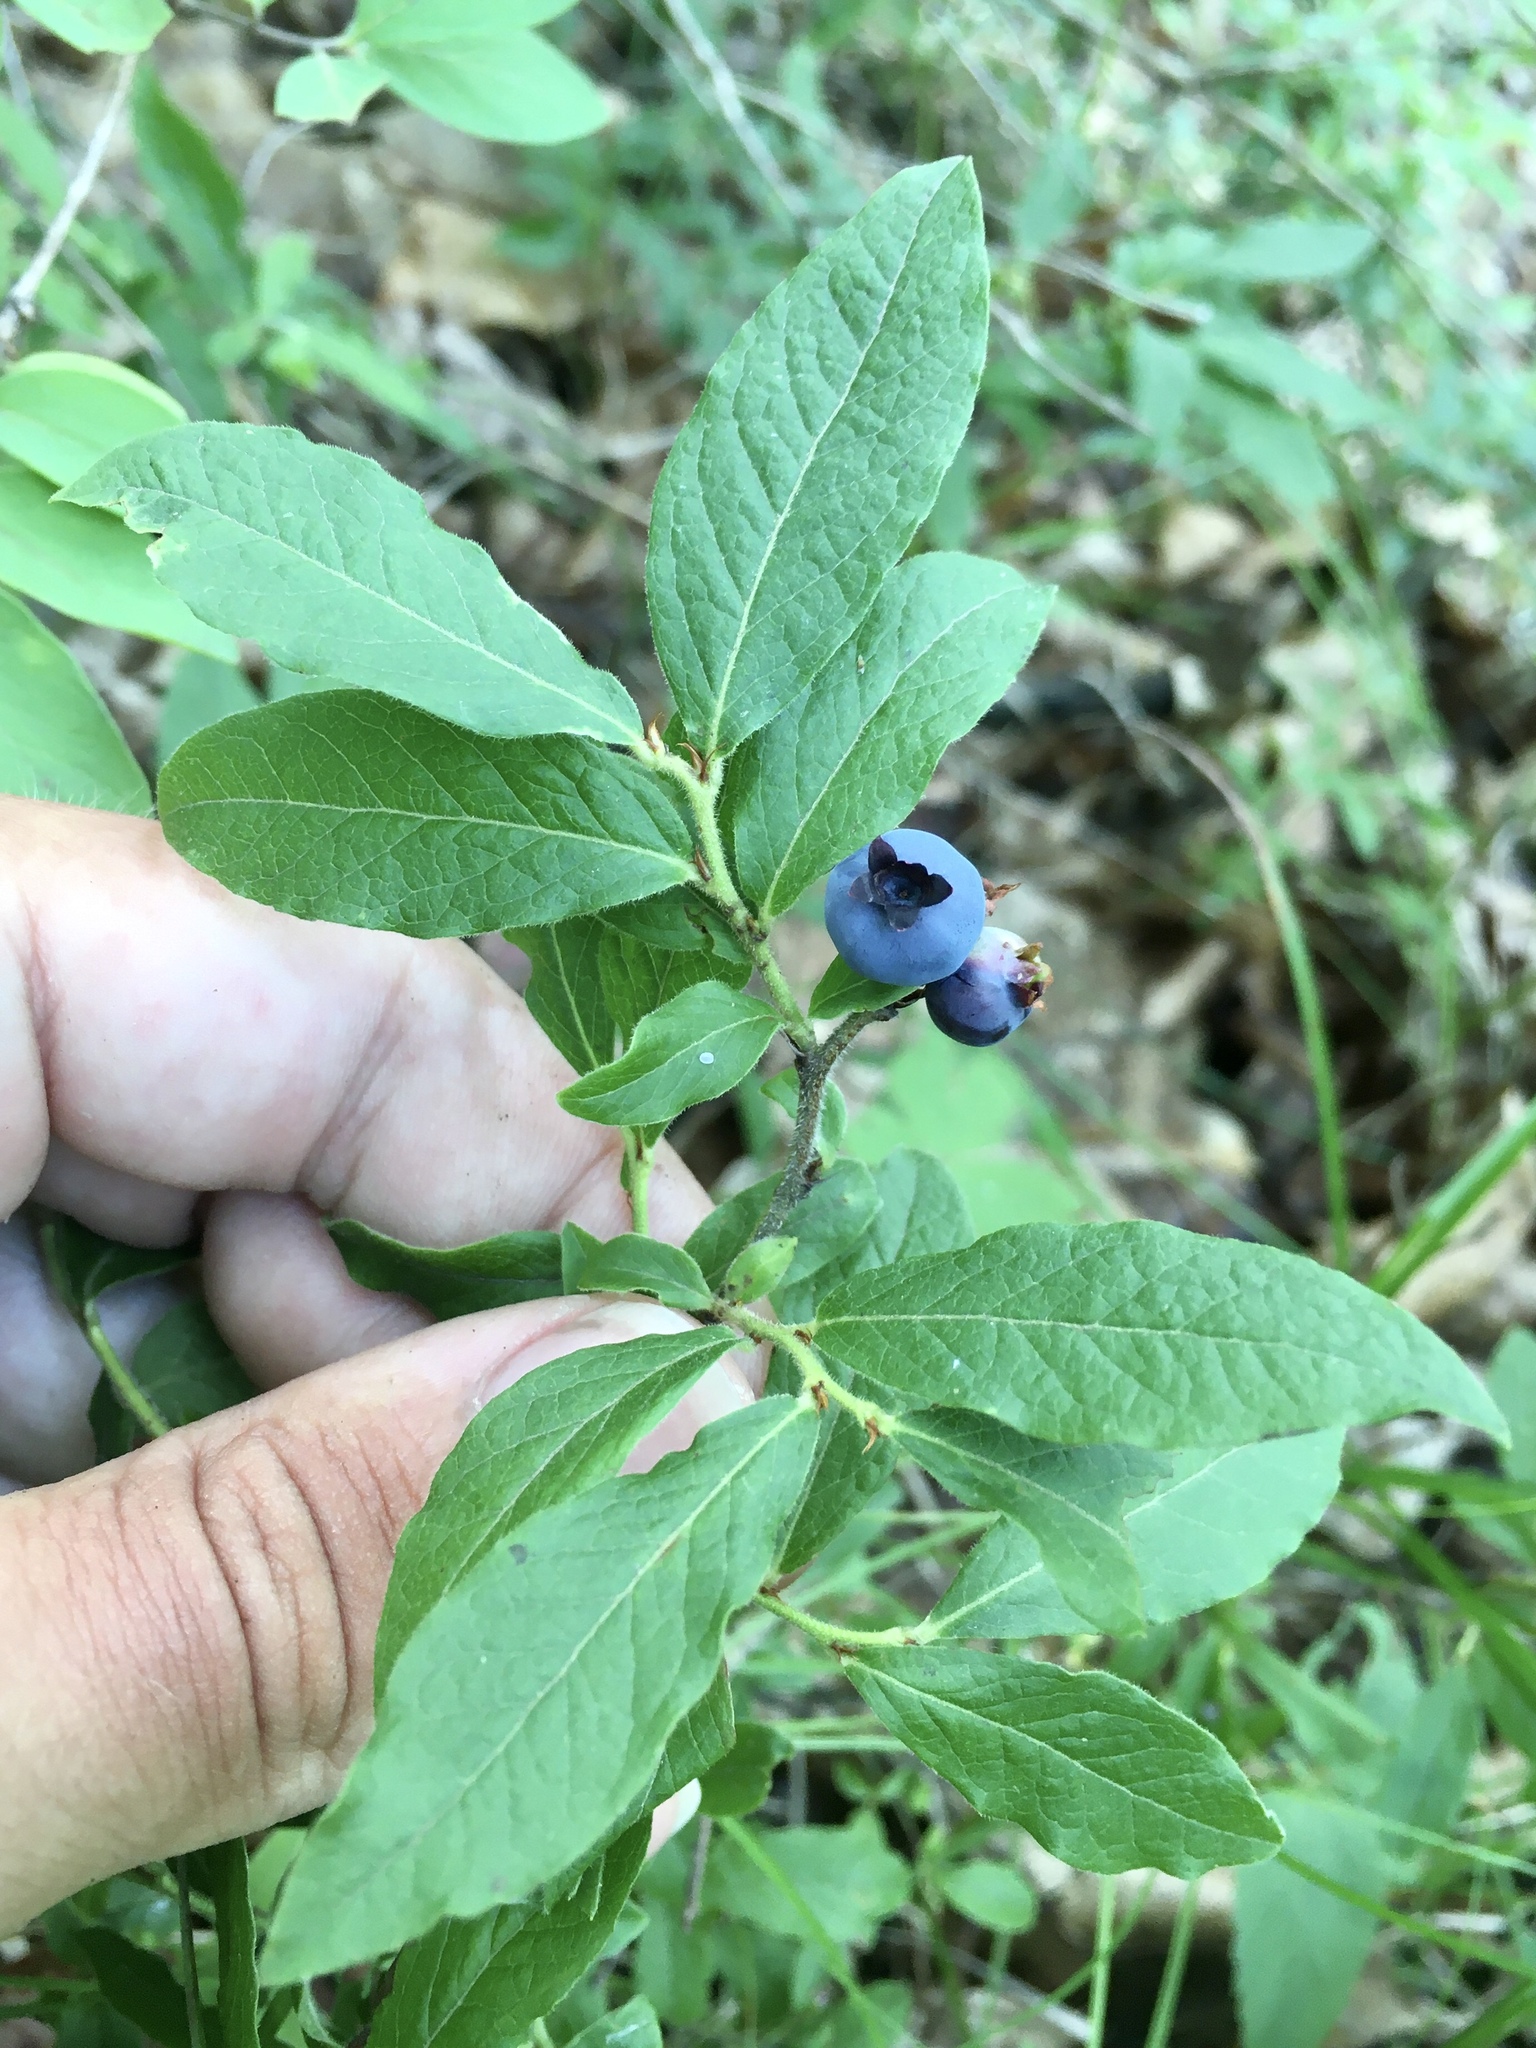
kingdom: Plantae
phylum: Tracheophyta
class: Magnoliopsida
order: Ericales
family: Ericaceae
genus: Vaccinium
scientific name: Vaccinium myrtilloides
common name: Canada blueberry
